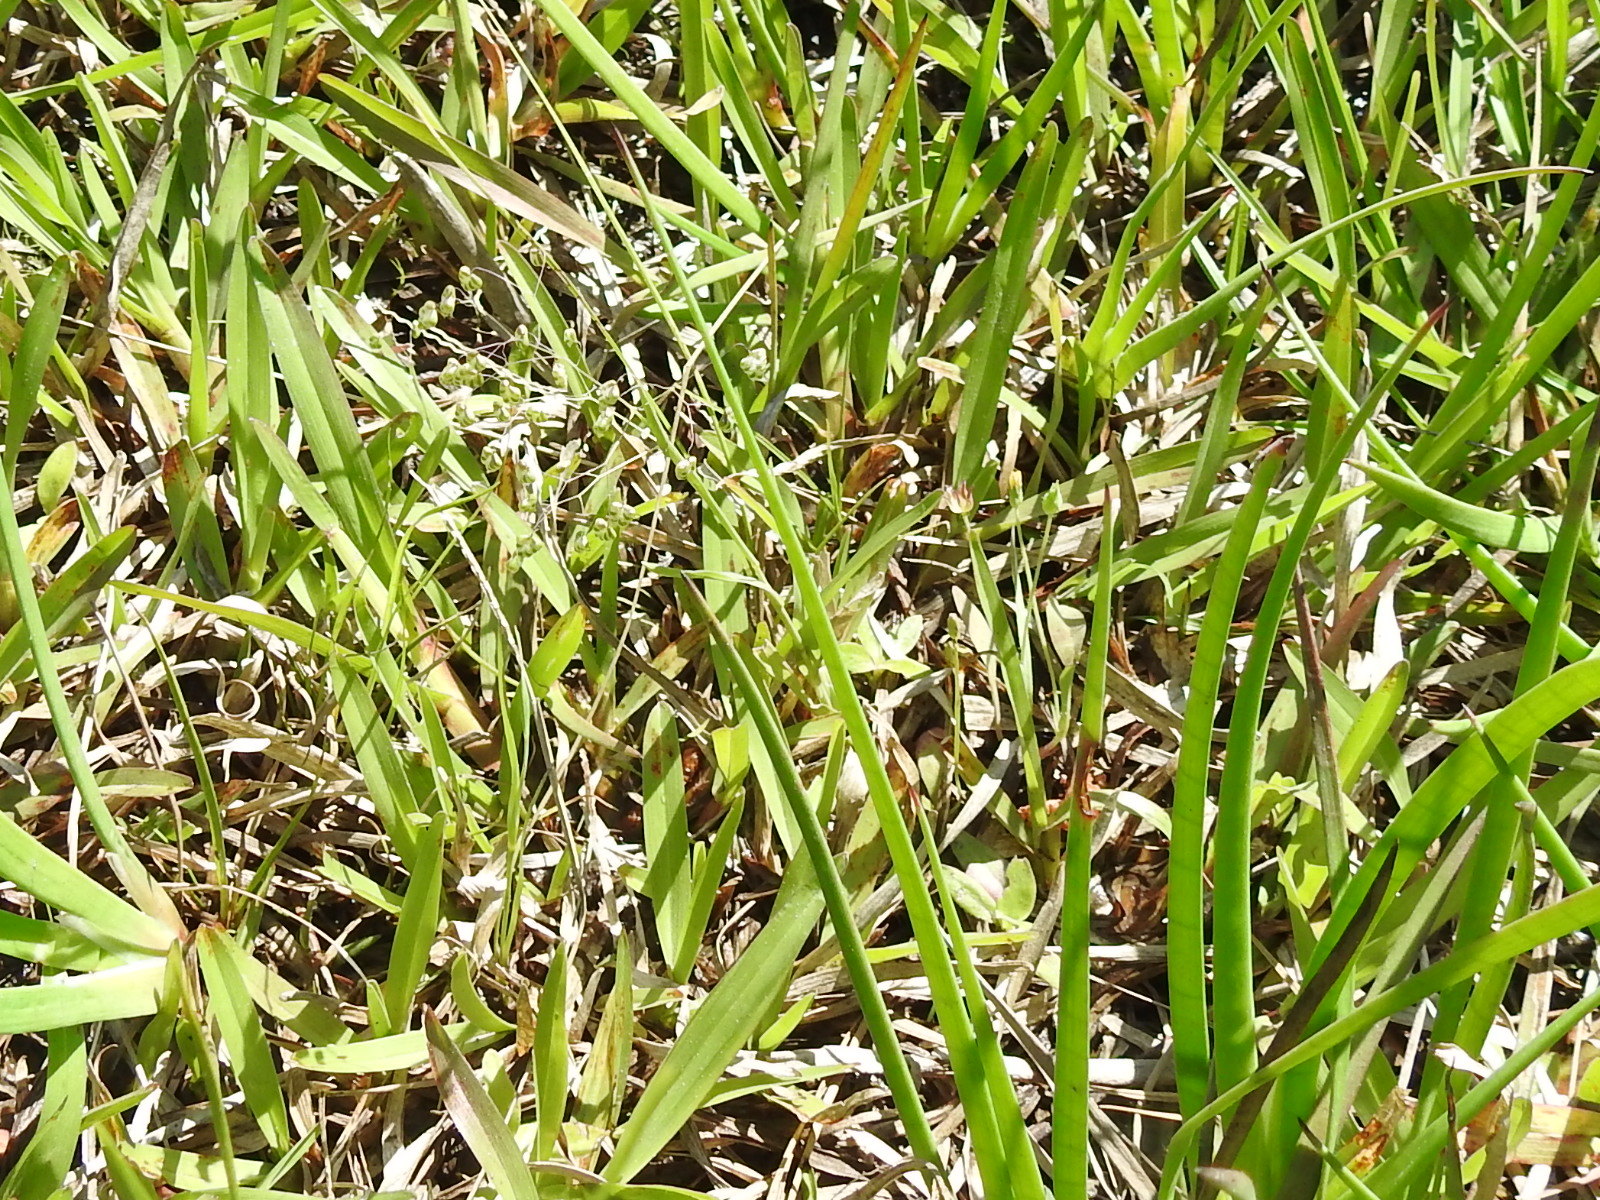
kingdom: Plantae
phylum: Tracheophyta
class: Liliopsida
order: Poales
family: Poaceae
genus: Briza
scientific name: Briza minor
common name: Lesser quaking-grass
